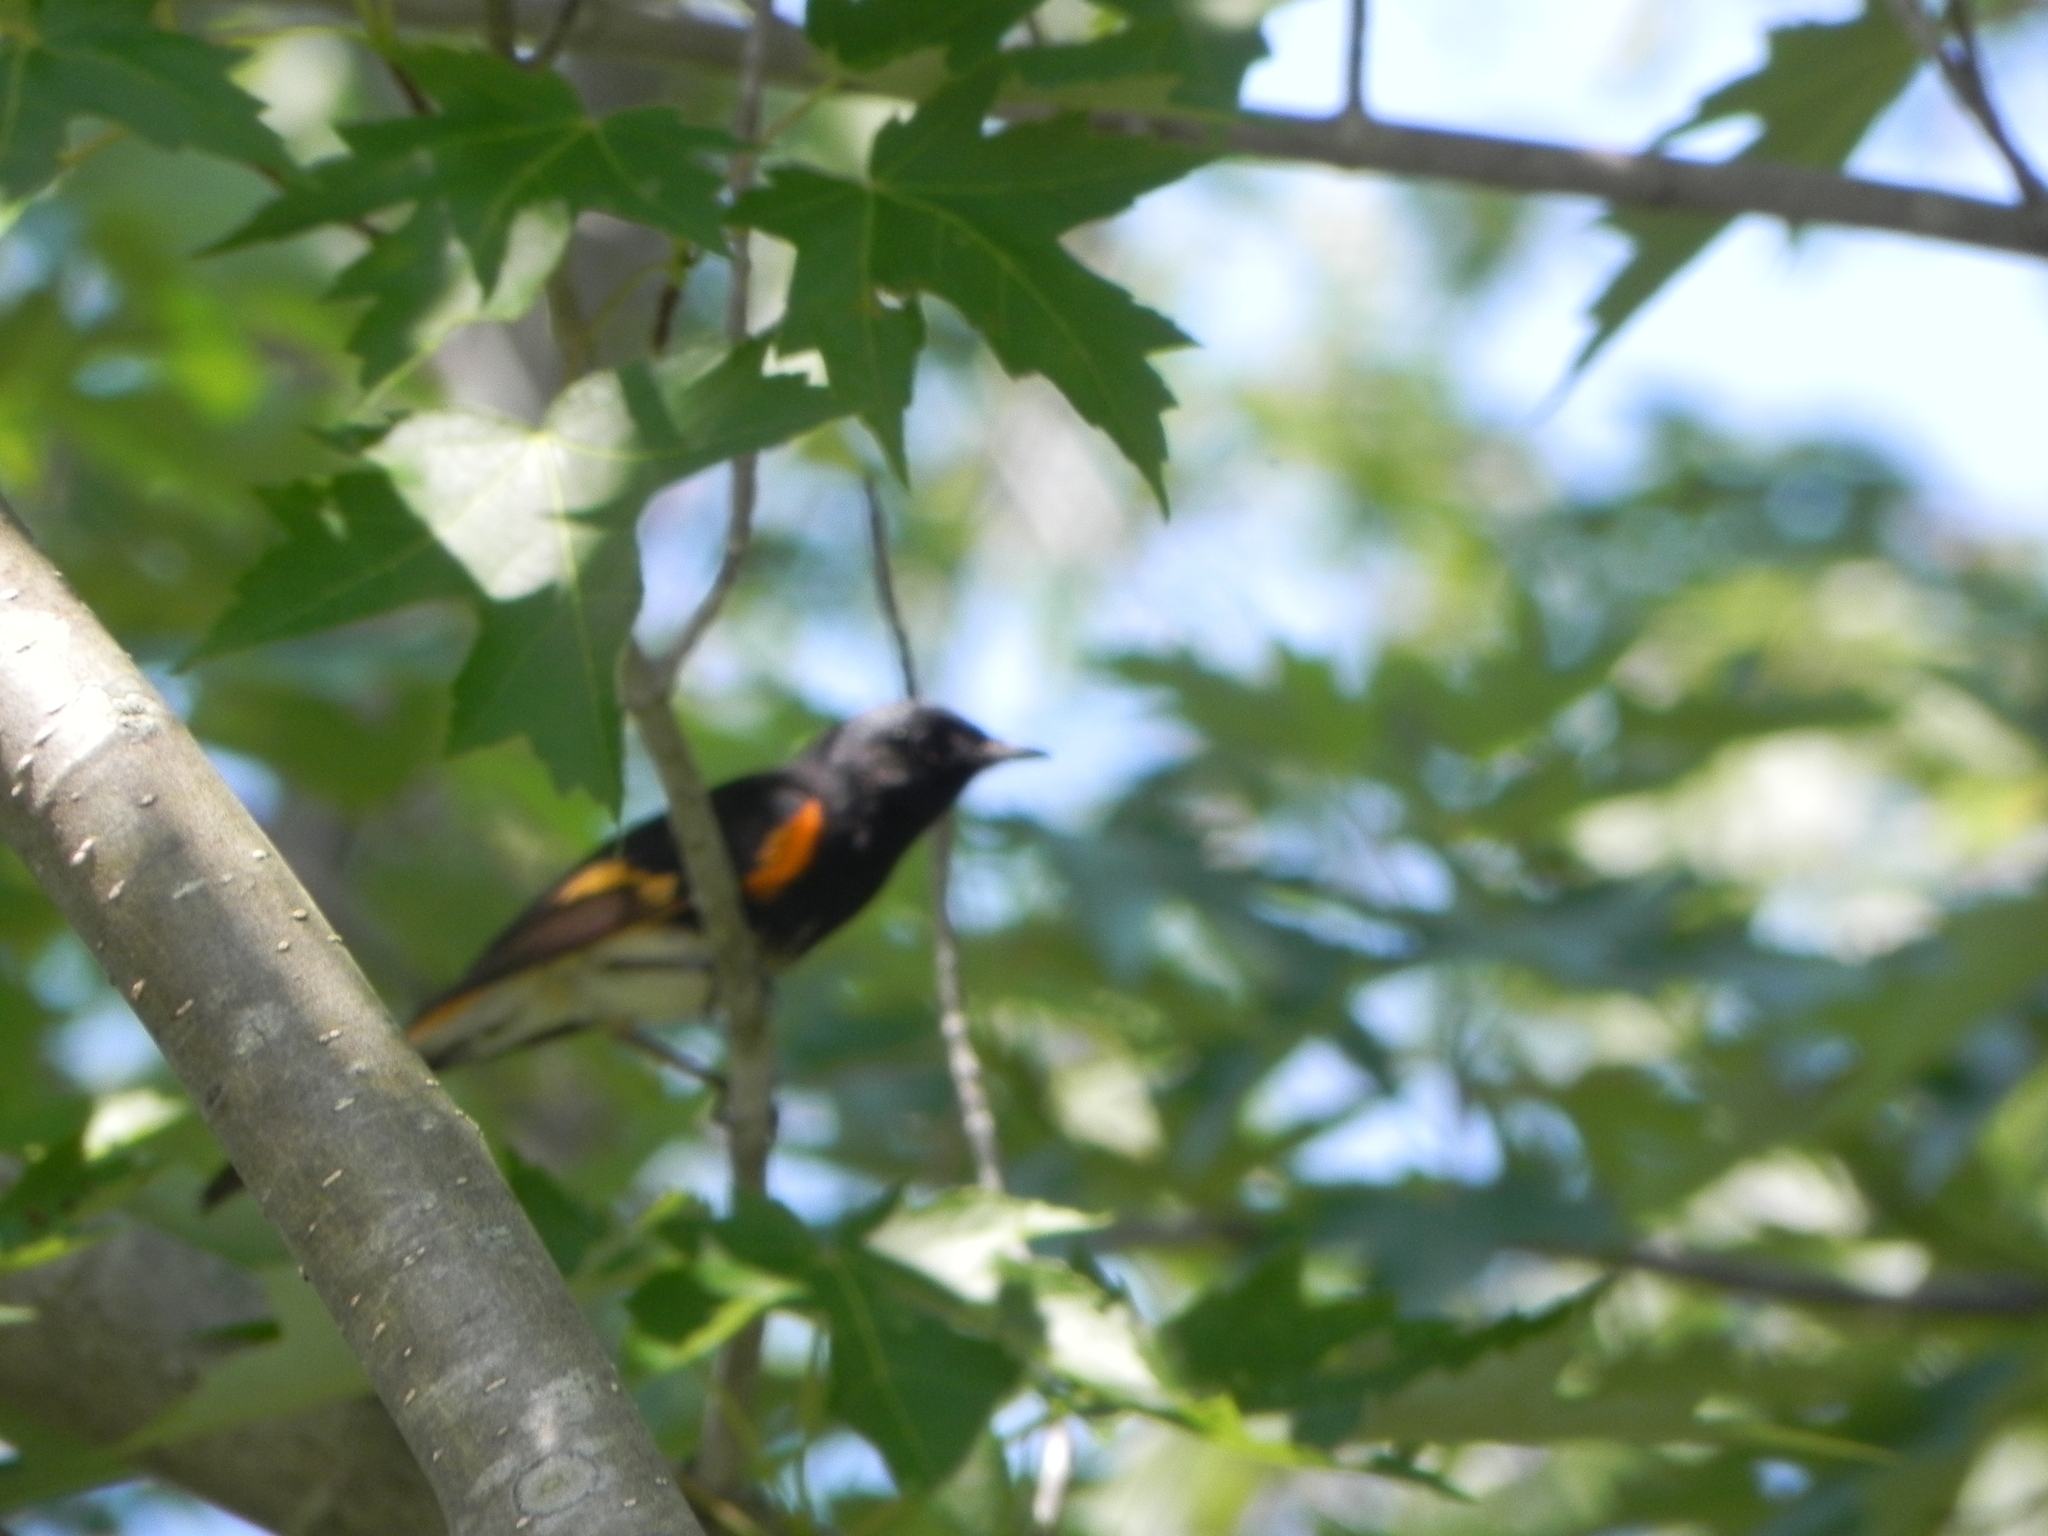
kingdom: Animalia
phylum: Chordata
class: Aves
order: Passeriformes
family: Parulidae
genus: Setophaga
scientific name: Setophaga ruticilla
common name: American redstart
